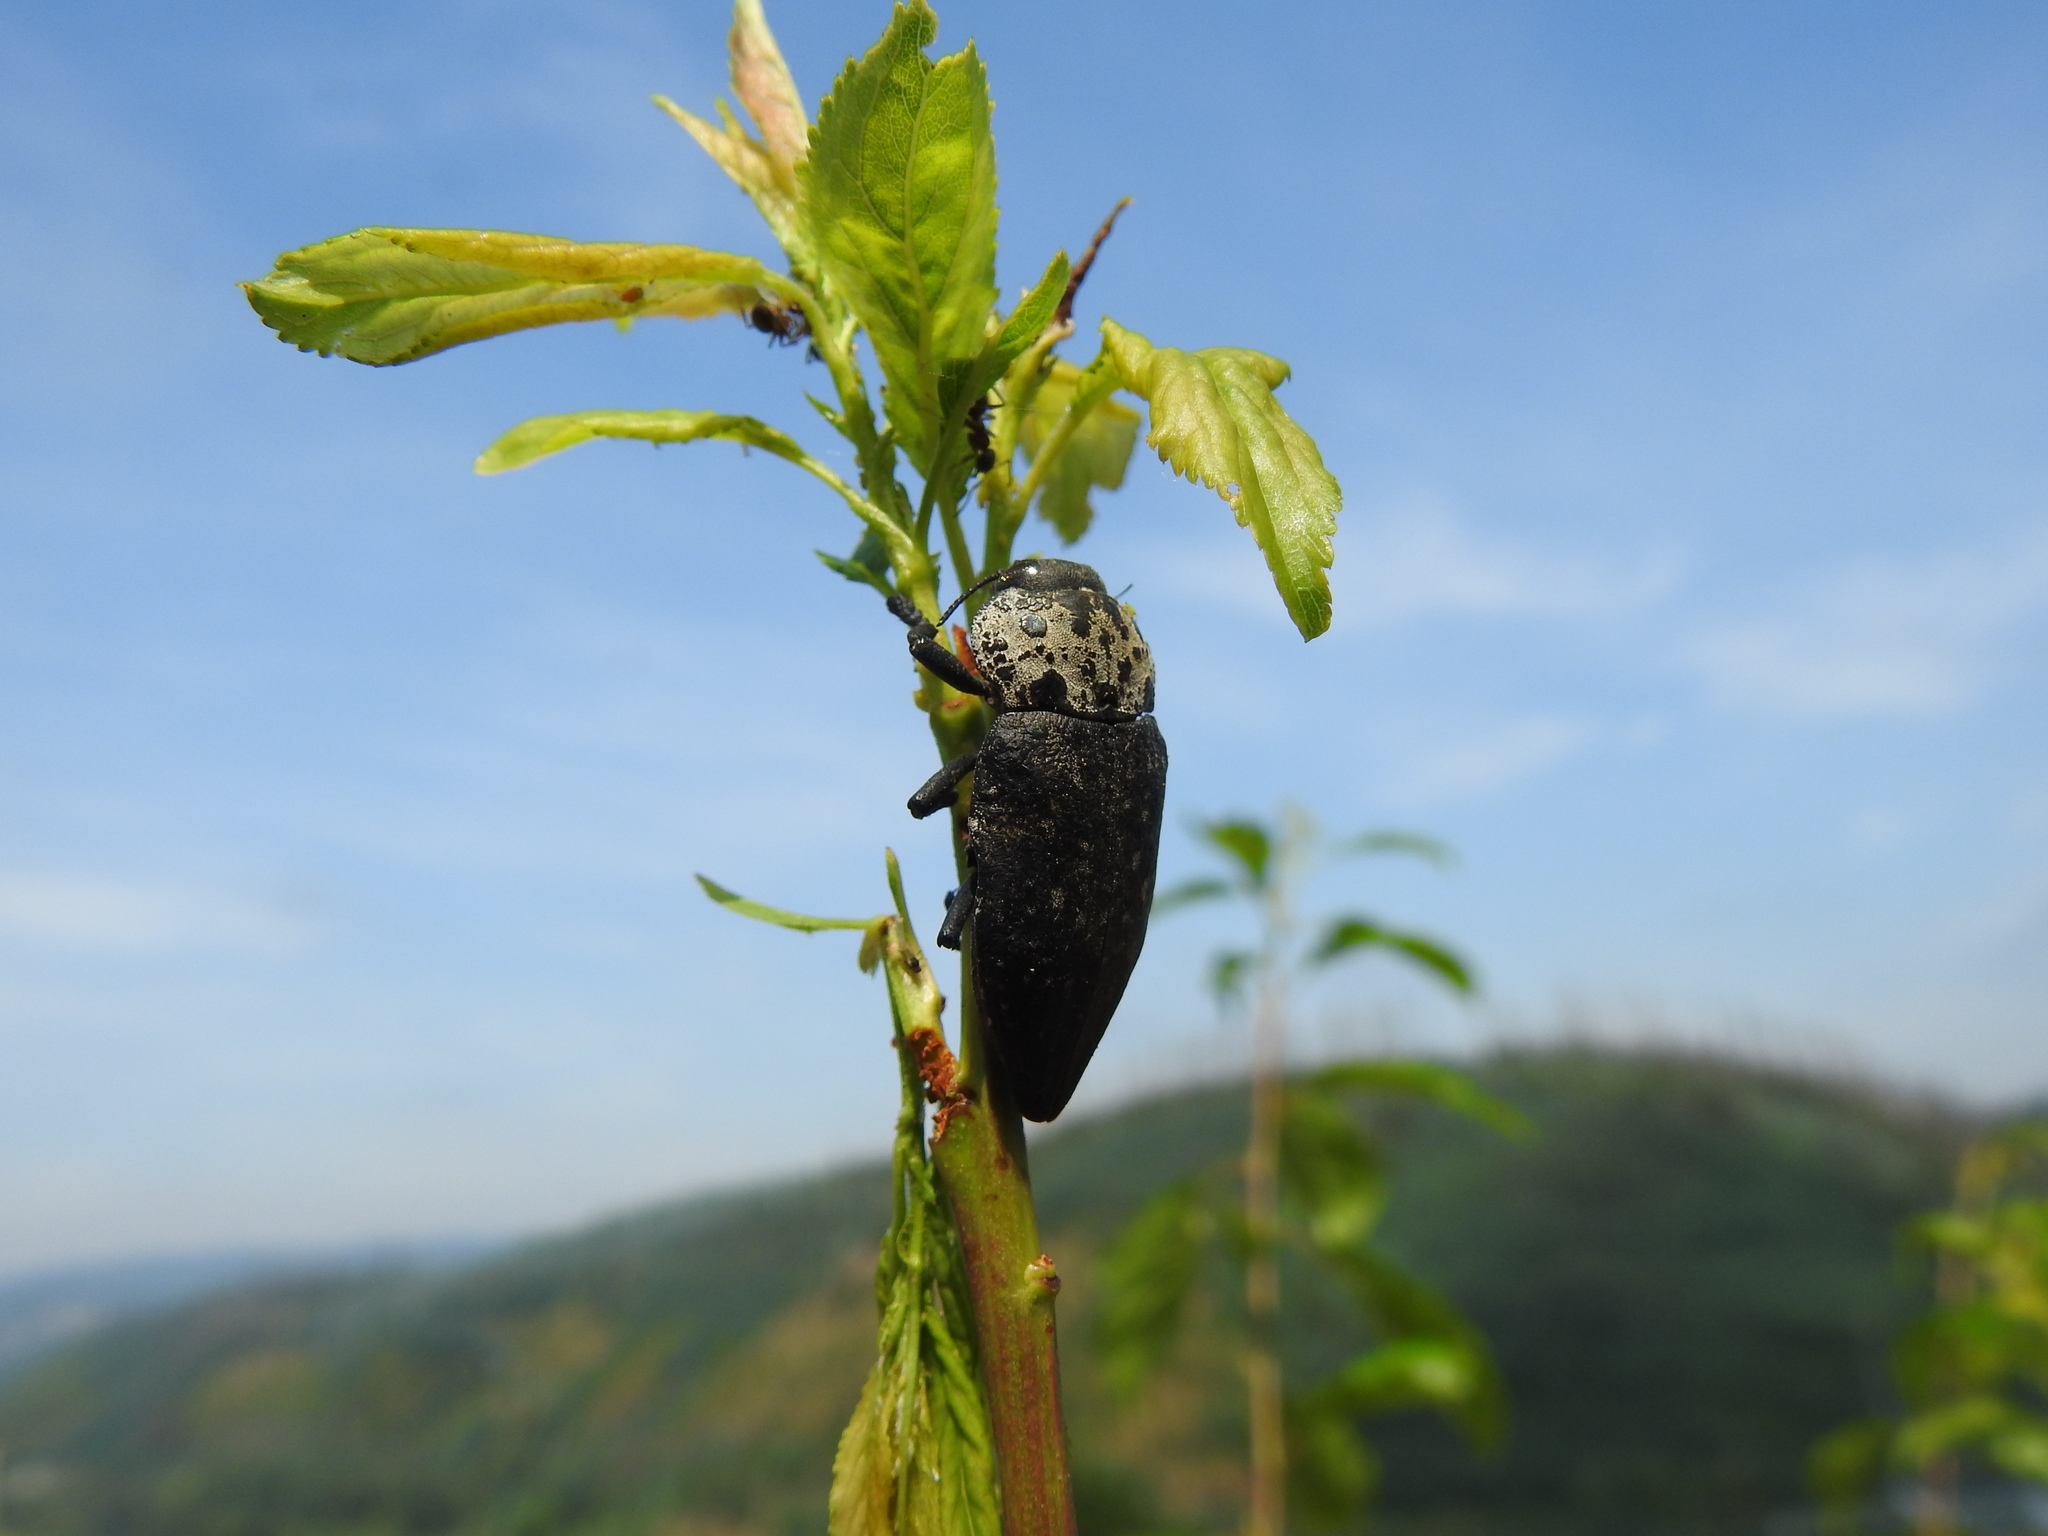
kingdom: Animalia
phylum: Arthropoda
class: Insecta
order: Coleoptera
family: Buprestidae
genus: Capnodis
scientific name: Capnodis tenebrionis
